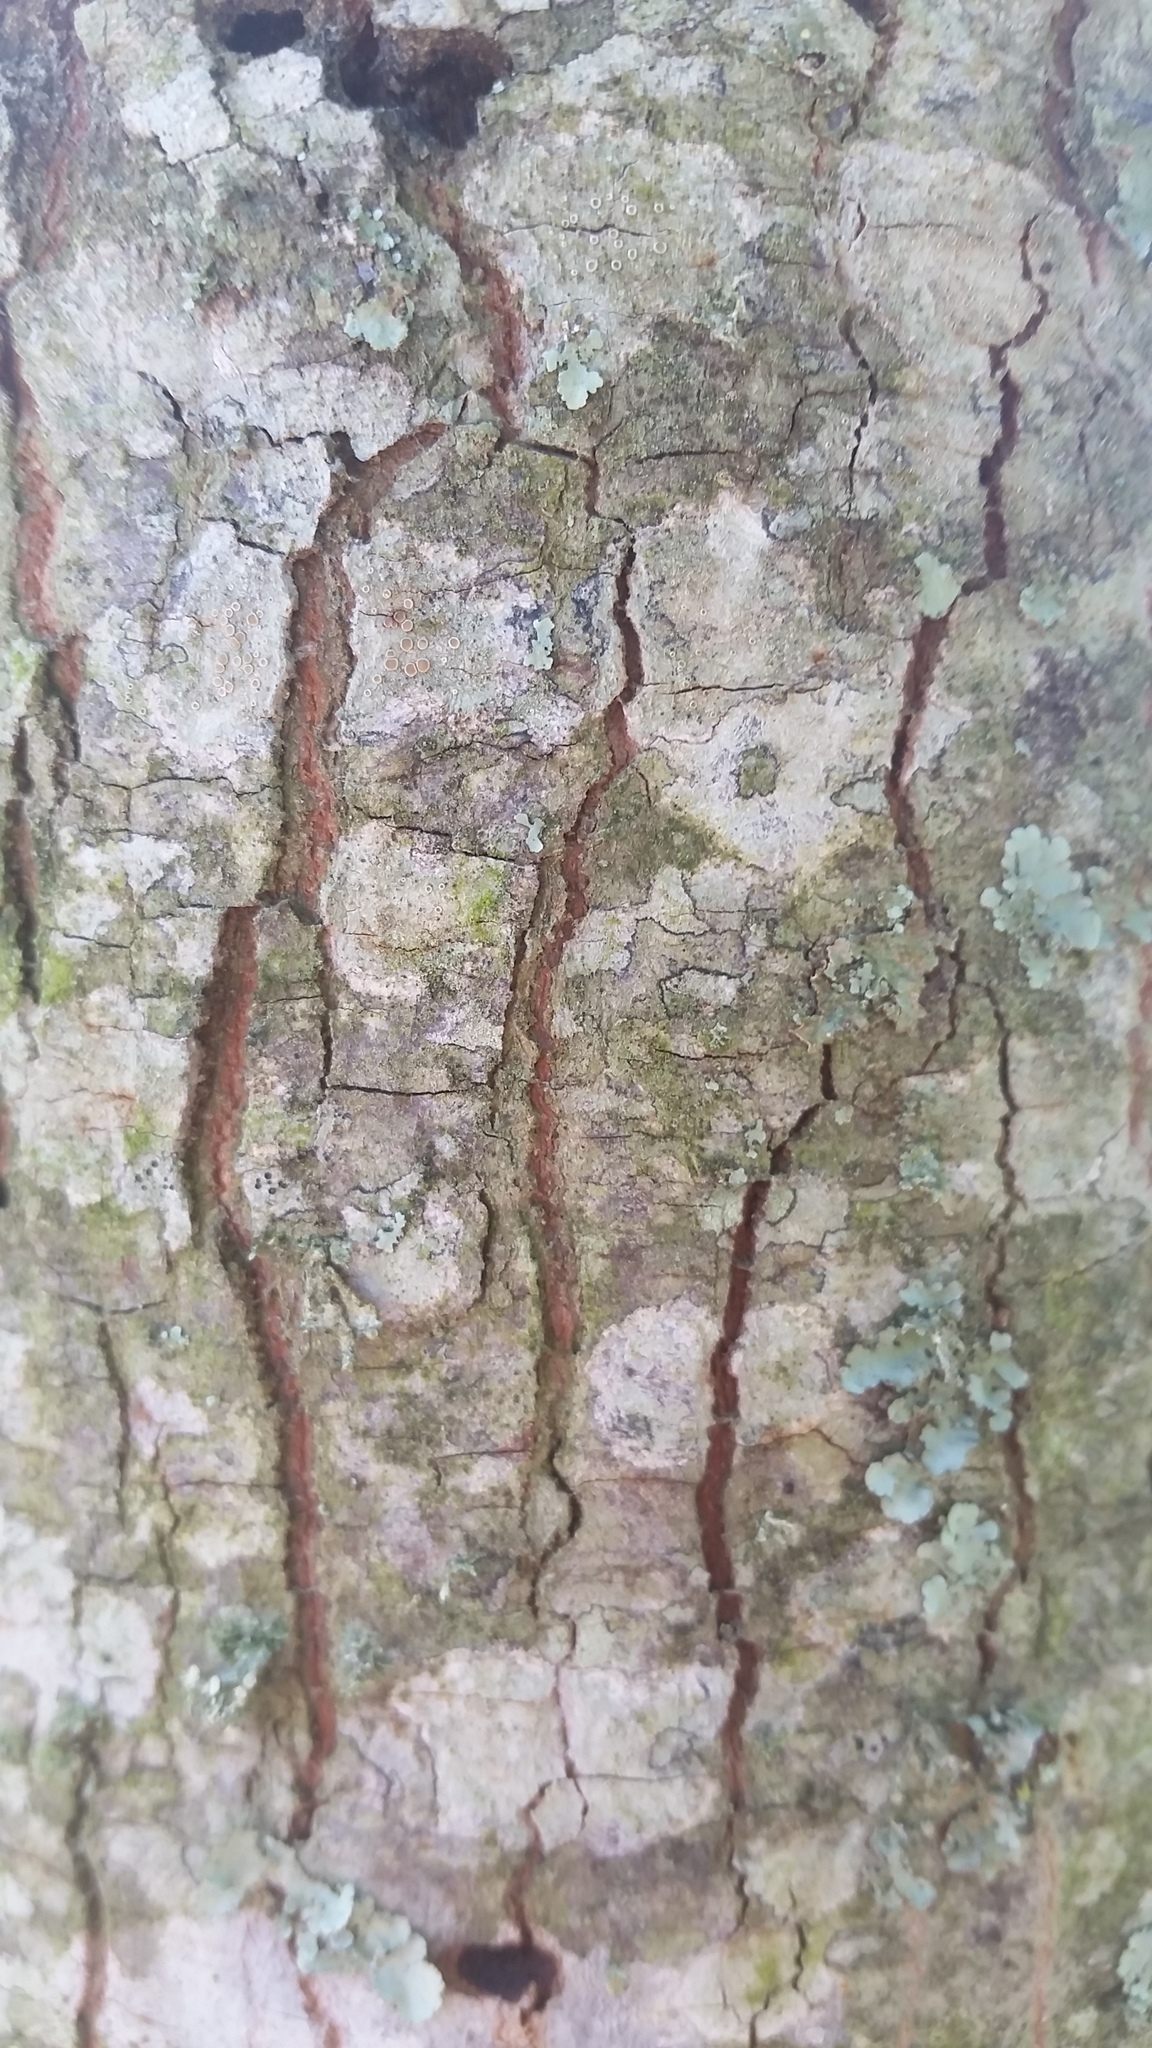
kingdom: Plantae
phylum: Tracheophyta
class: Magnoliopsida
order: Ericales
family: Theaceae
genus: Gordonia
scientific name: Gordonia lasianthus
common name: Loblolly bay
